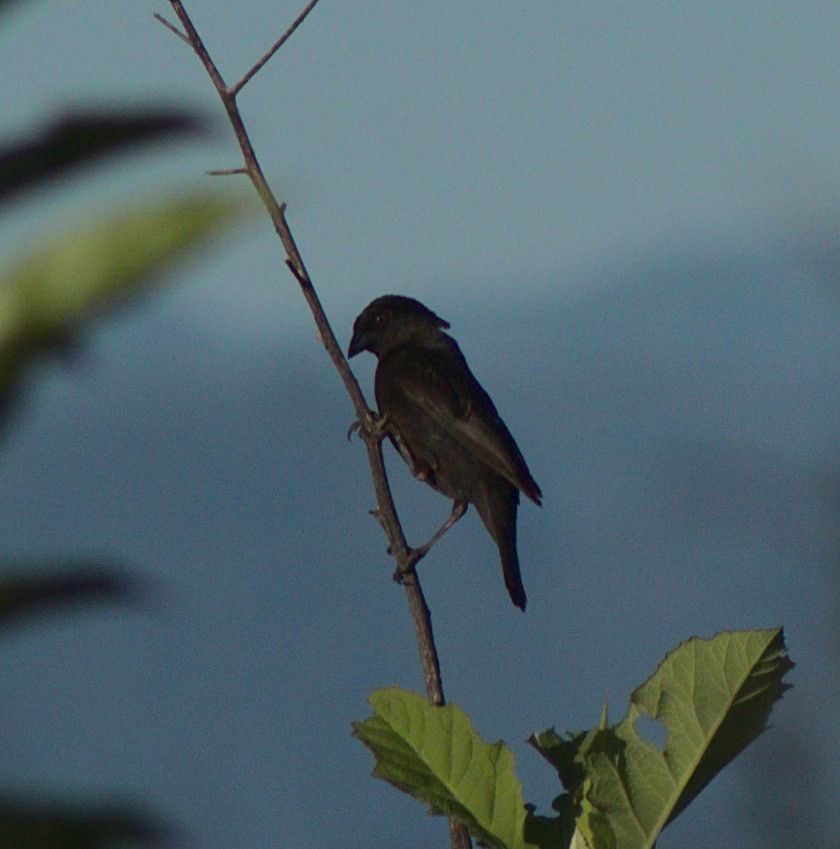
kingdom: Animalia
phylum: Chordata
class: Aves
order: Passeriformes
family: Icteridae
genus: Molothrus
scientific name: Molothrus aeneus
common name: Bronzed cowbird
